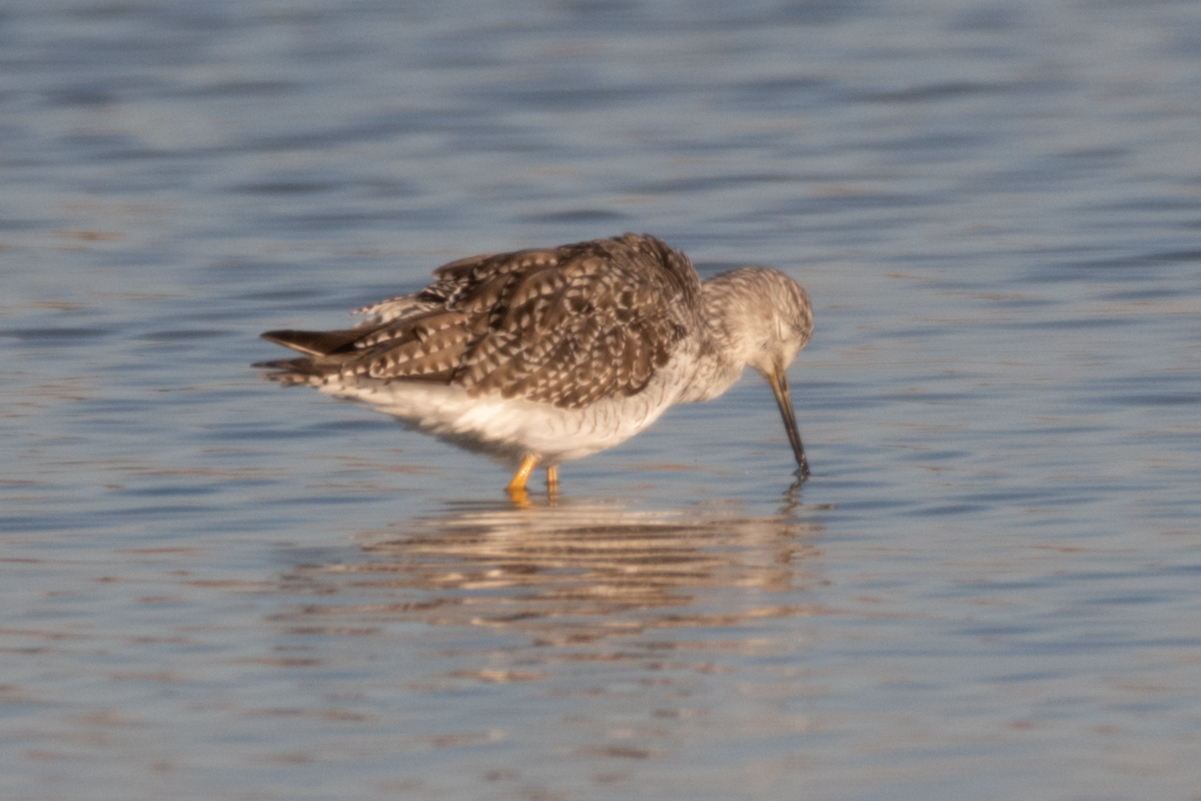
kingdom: Animalia
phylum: Chordata
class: Aves
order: Charadriiformes
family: Scolopacidae
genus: Tringa
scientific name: Tringa melanoleuca
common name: Greater yellowlegs
